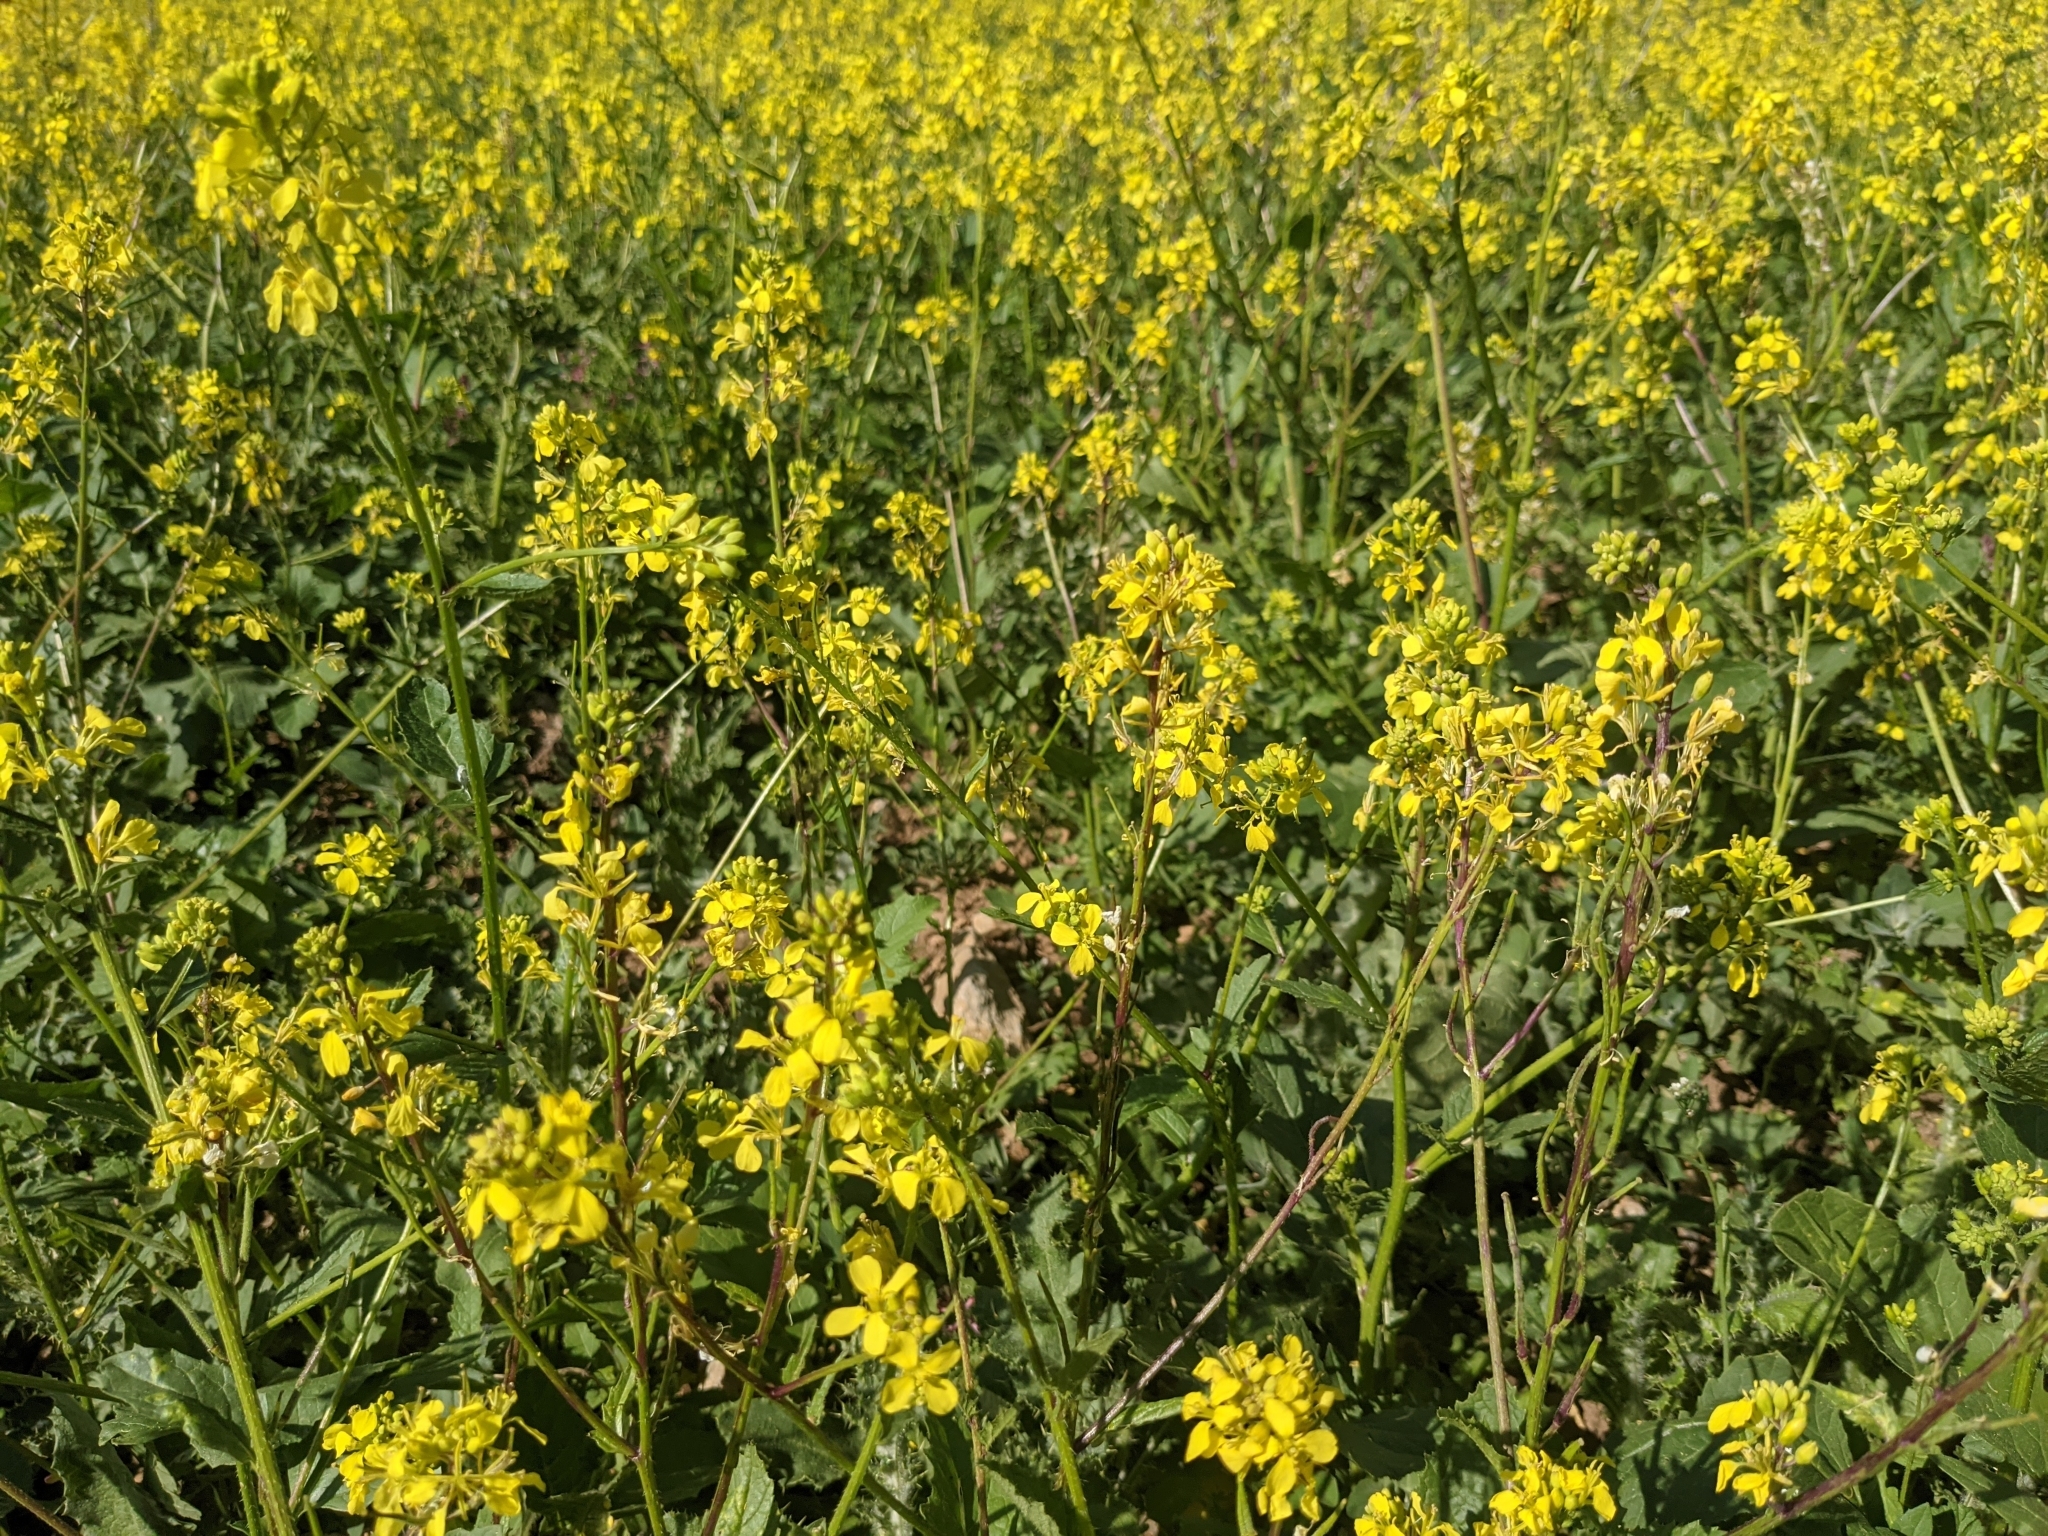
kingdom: Plantae
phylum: Tracheophyta
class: Magnoliopsida
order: Brassicales
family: Brassicaceae
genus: Sinapis
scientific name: Sinapis alba
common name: White mustard
